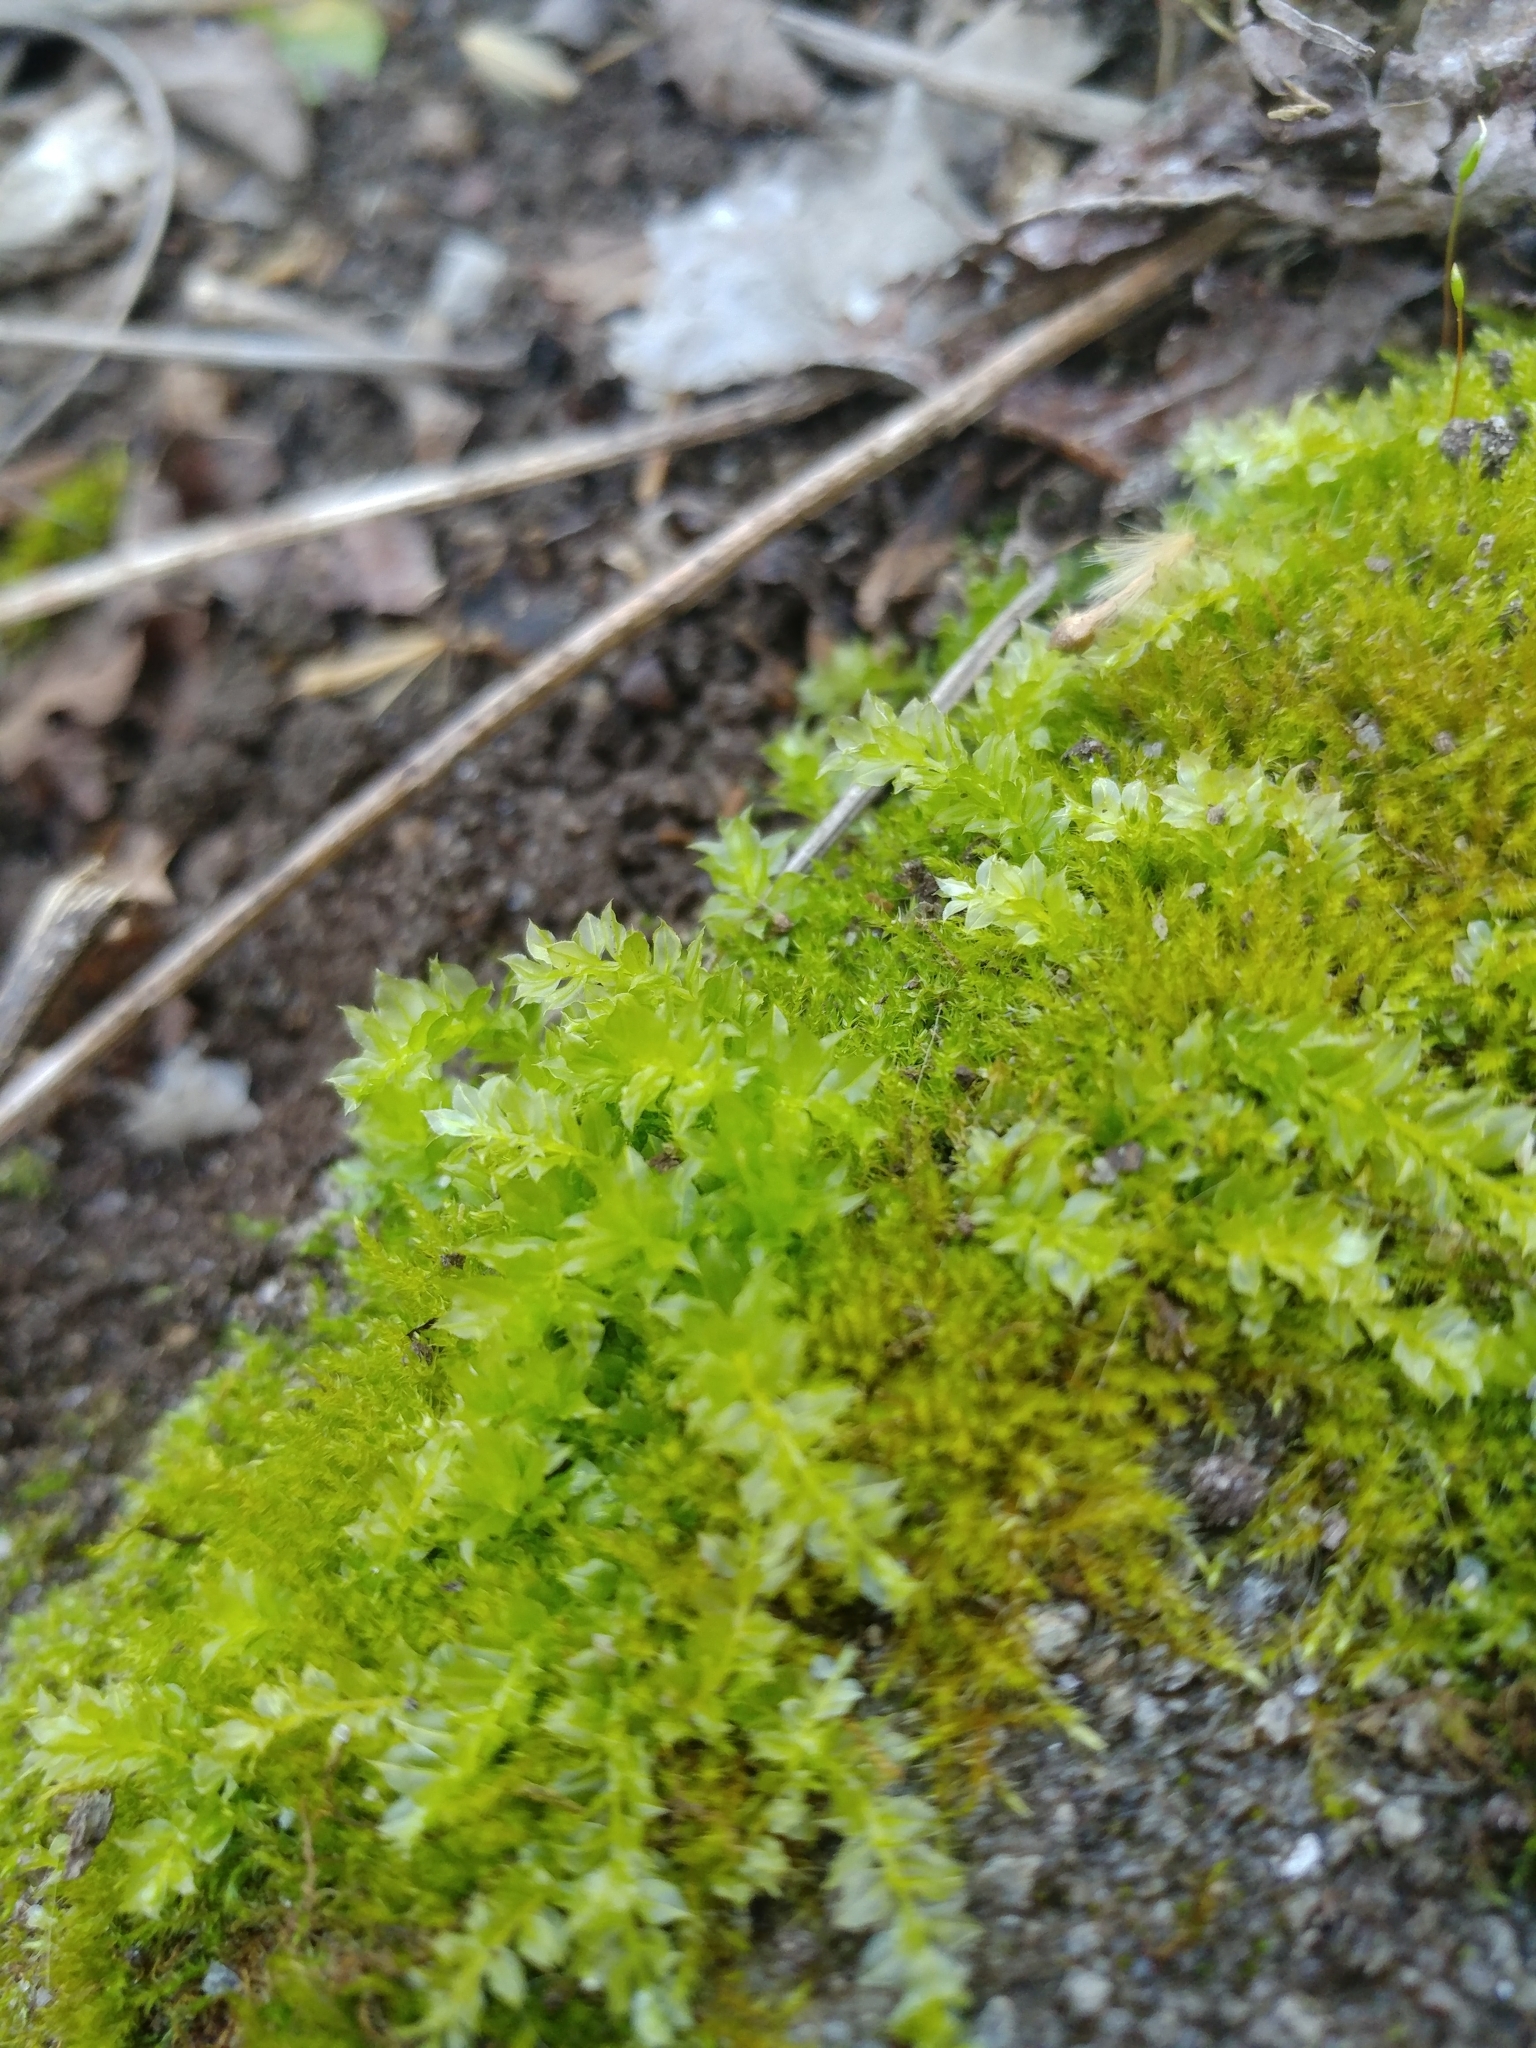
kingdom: Plantae
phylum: Bryophyta
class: Bryopsida
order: Bryales
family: Mniaceae
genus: Plagiomnium
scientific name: Plagiomnium cuspidatum
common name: Woodsy leafy moss
